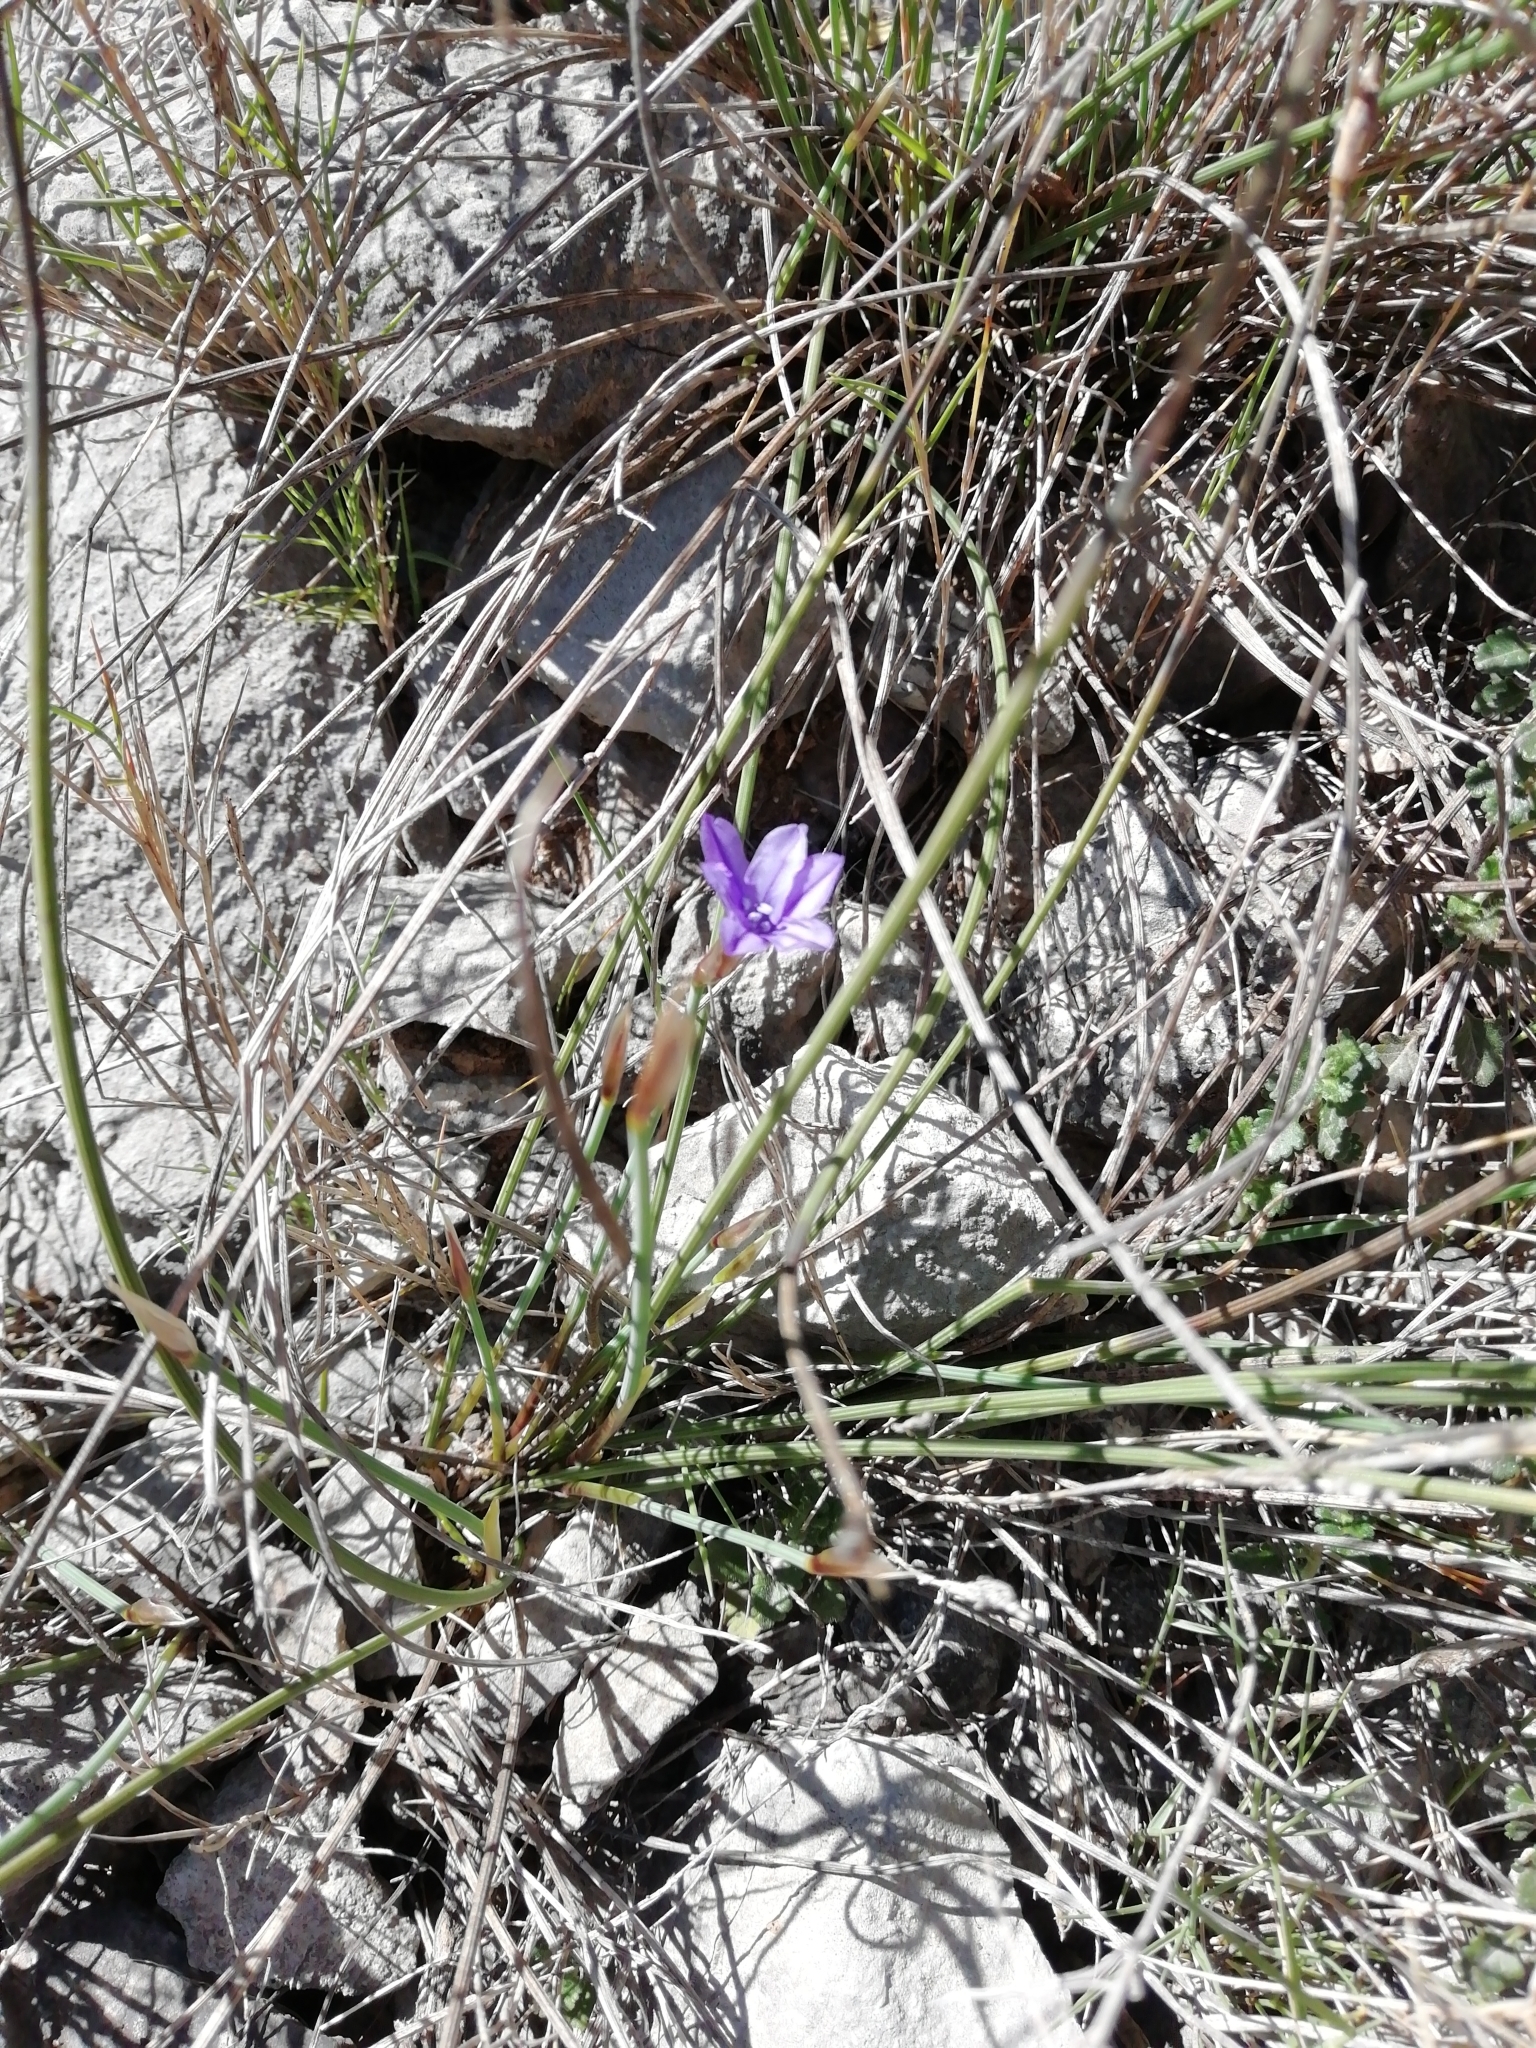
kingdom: Plantae
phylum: Tracheophyta
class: Liliopsida
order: Asparagales
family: Asparagaceae
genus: Aphyllanthes
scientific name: Aphyllanthes monspeliensis
